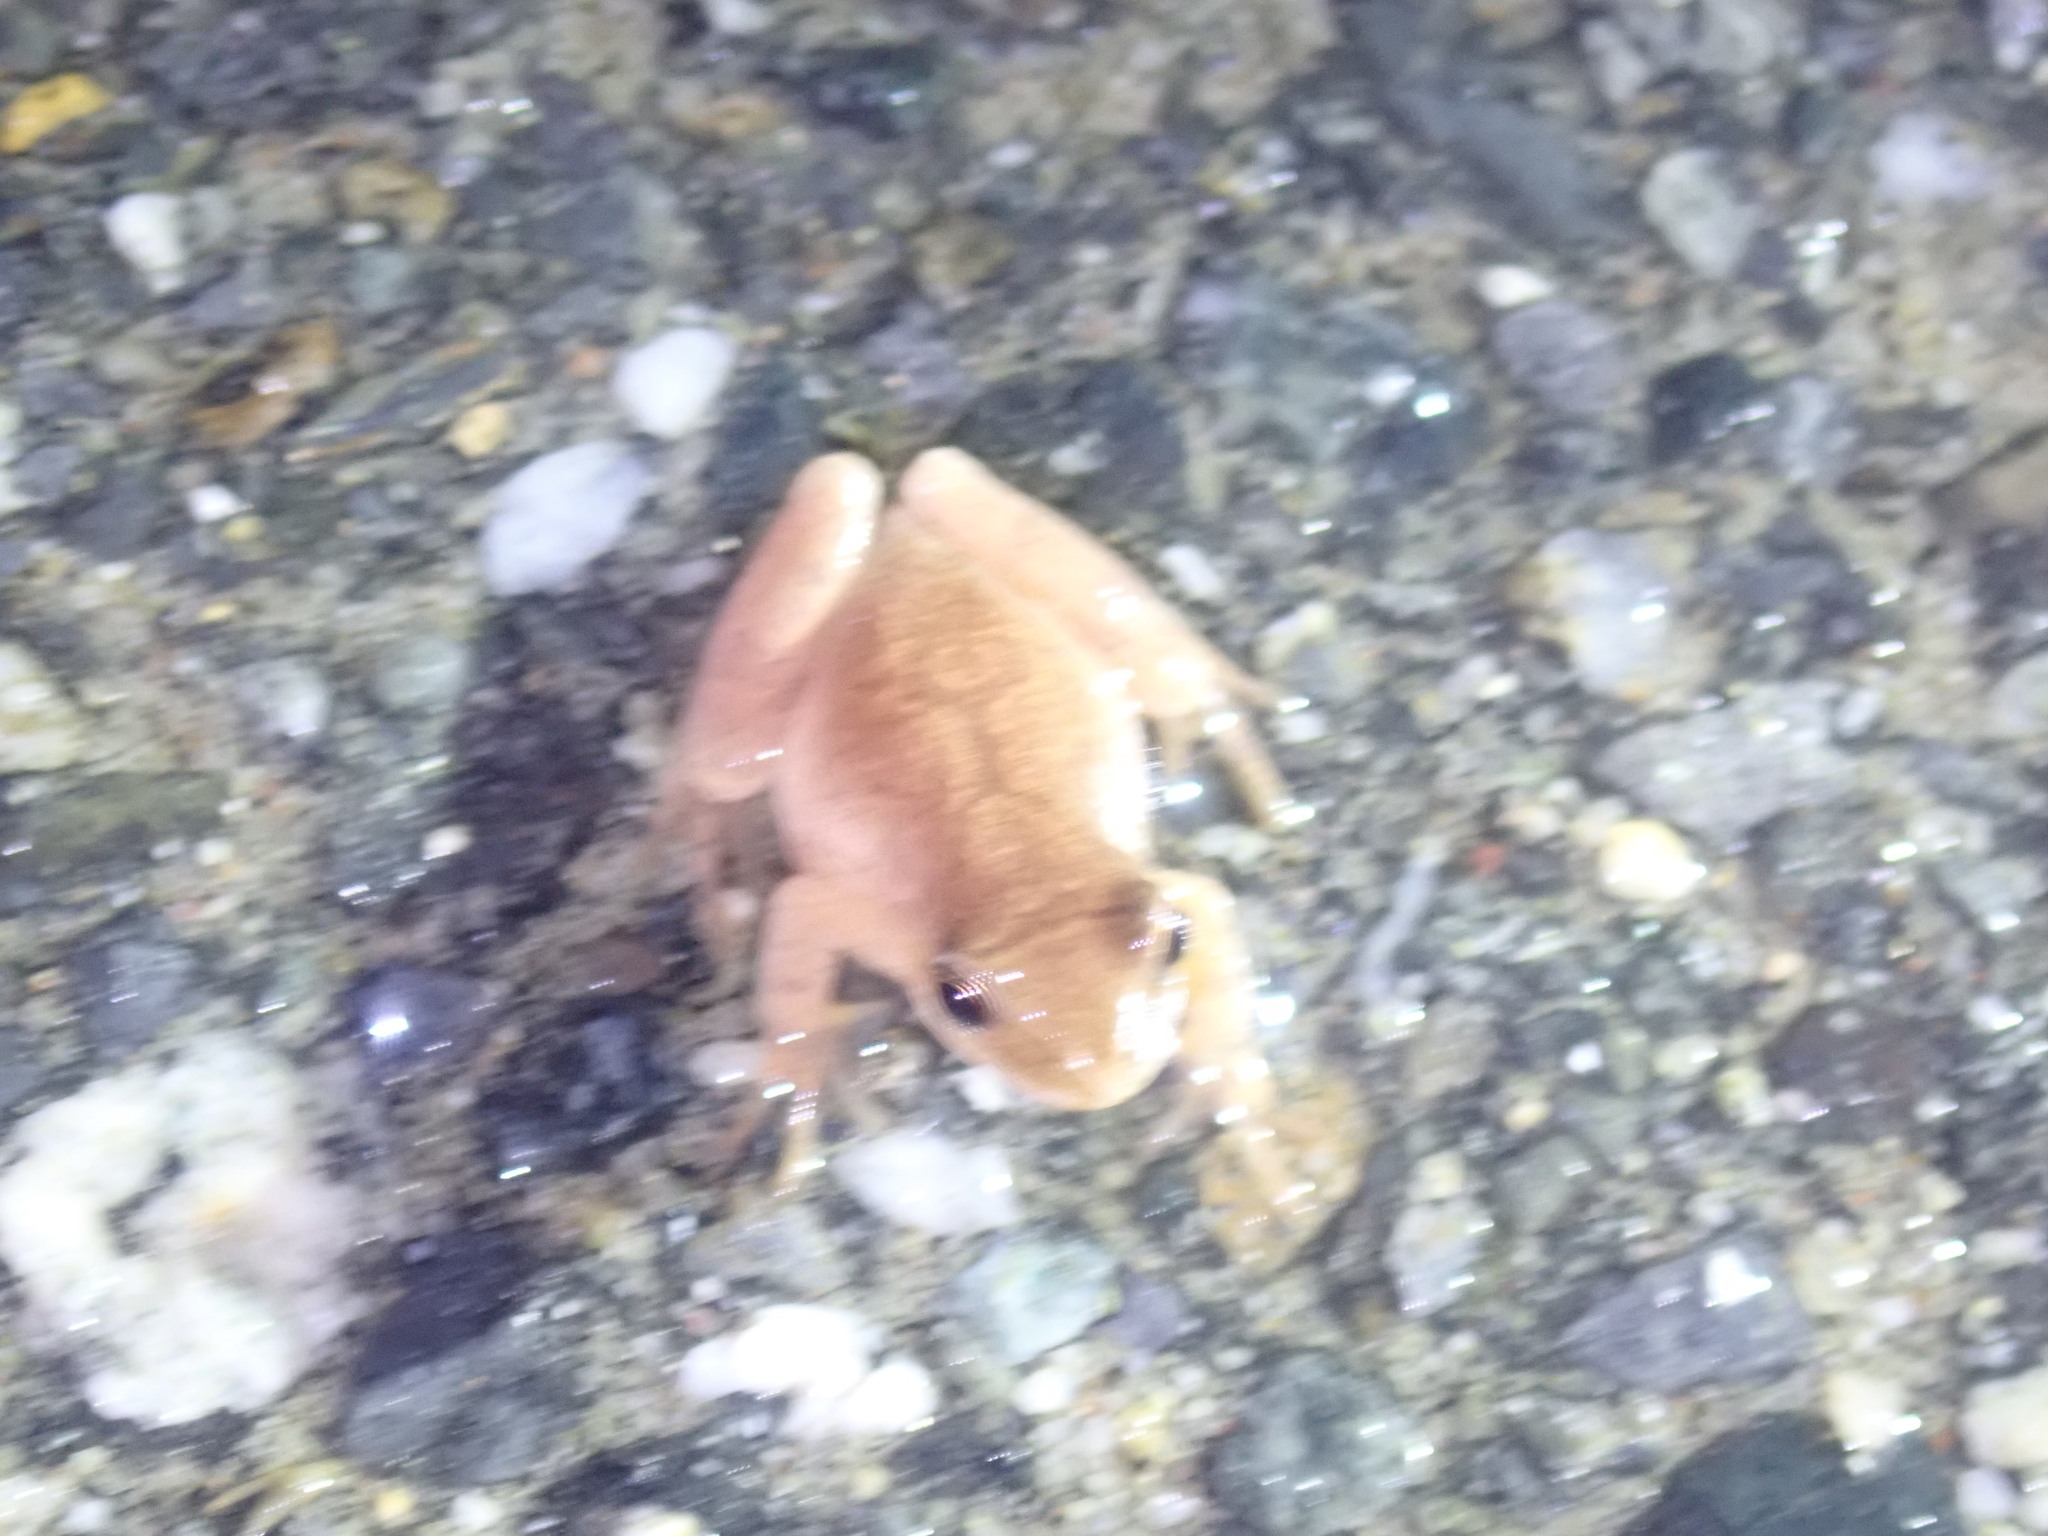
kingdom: Animalia
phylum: Chordata
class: Amphibia
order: Anura
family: Hylidae
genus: Pseudacris
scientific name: Pseudacris crucifer
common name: Spring peeper
